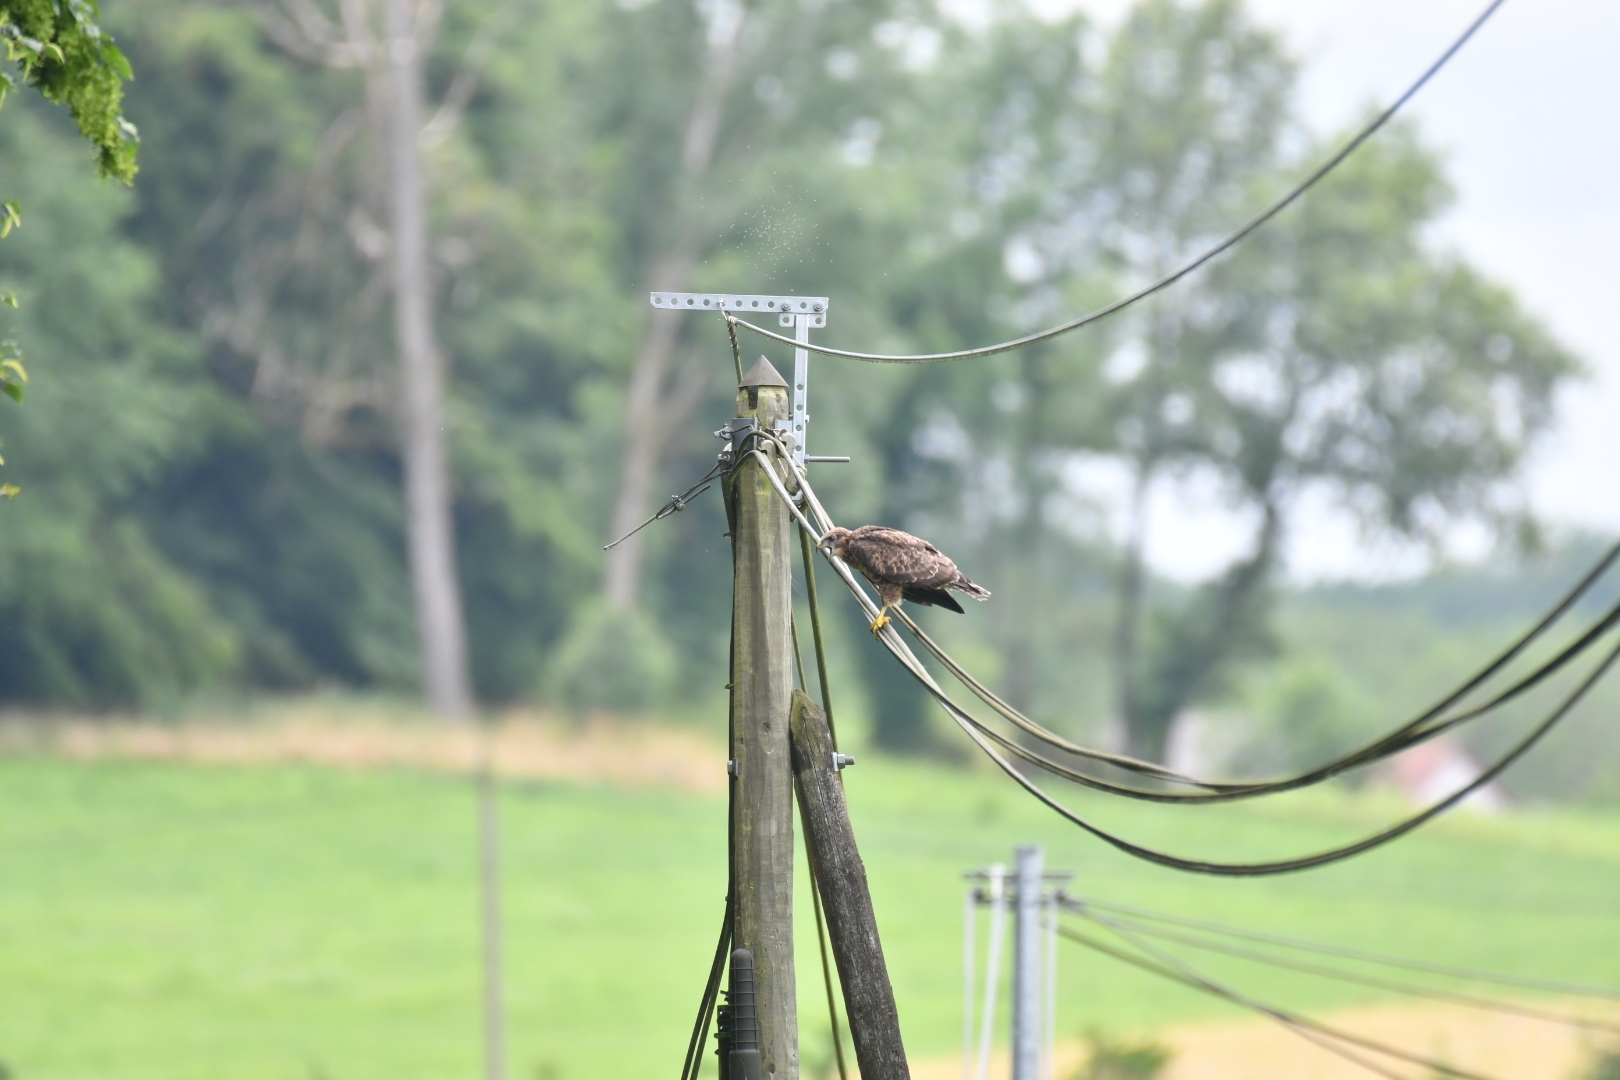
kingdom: Animalia
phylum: Chordata
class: Aves
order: Accipitriformes
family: Accipitridae
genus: Buteo
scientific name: Buteo buteo
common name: Common buzzard
